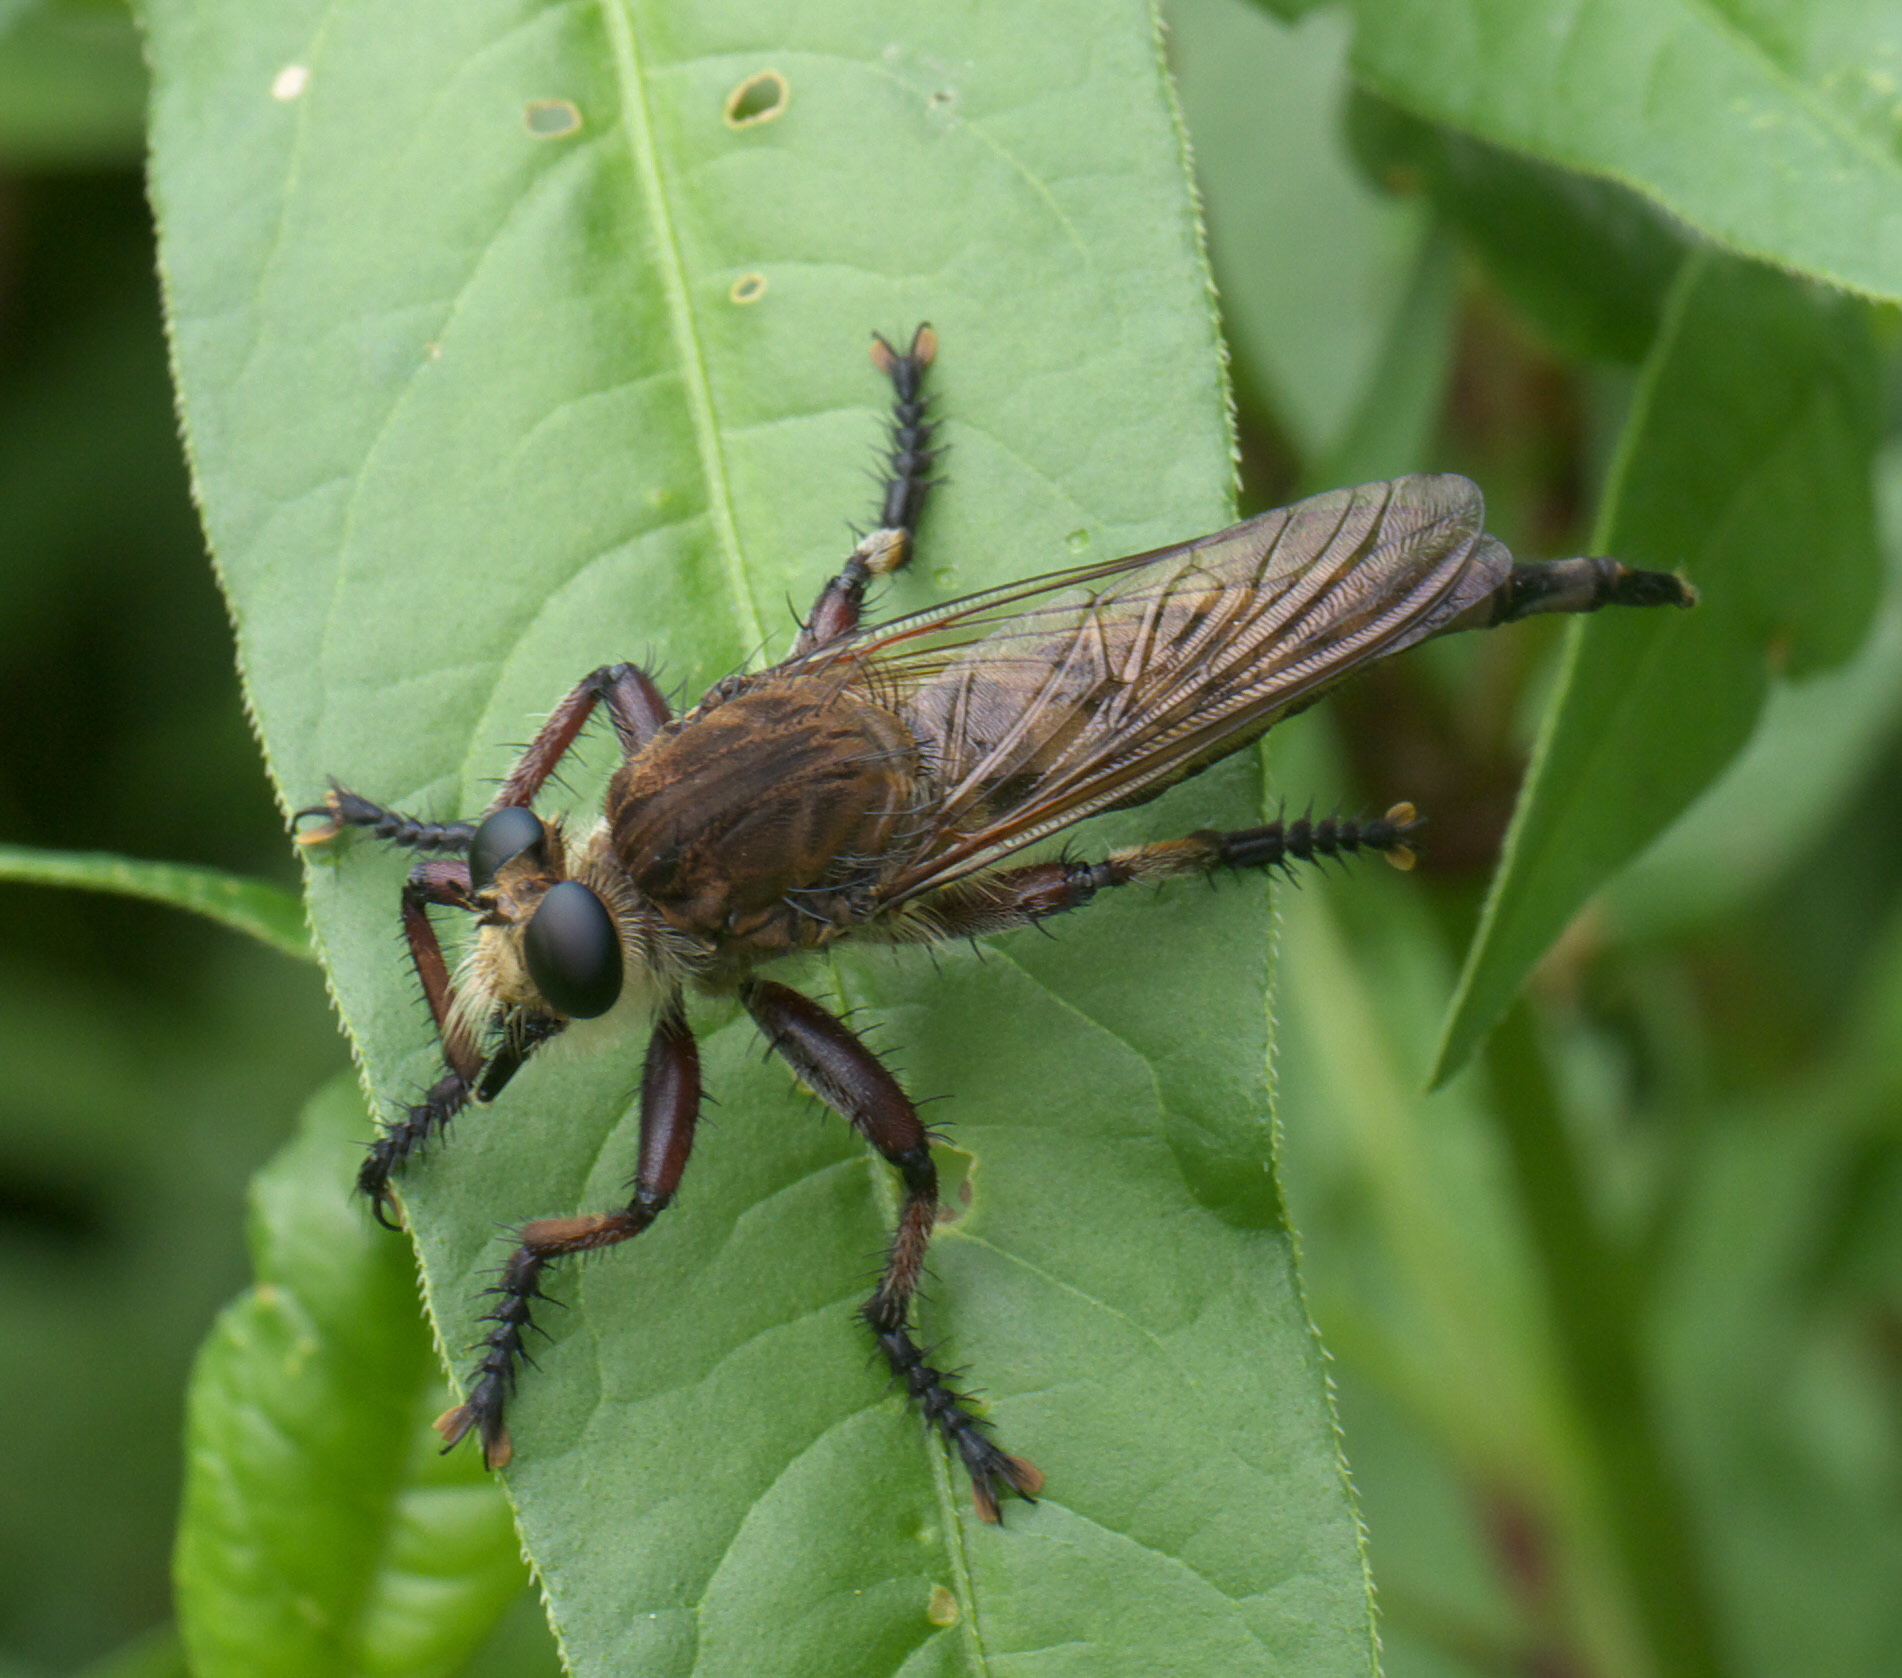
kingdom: Animalia
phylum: Arthropoda
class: Insecta
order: Diptera
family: Asilidae
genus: Promachus
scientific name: Promachus hinei
